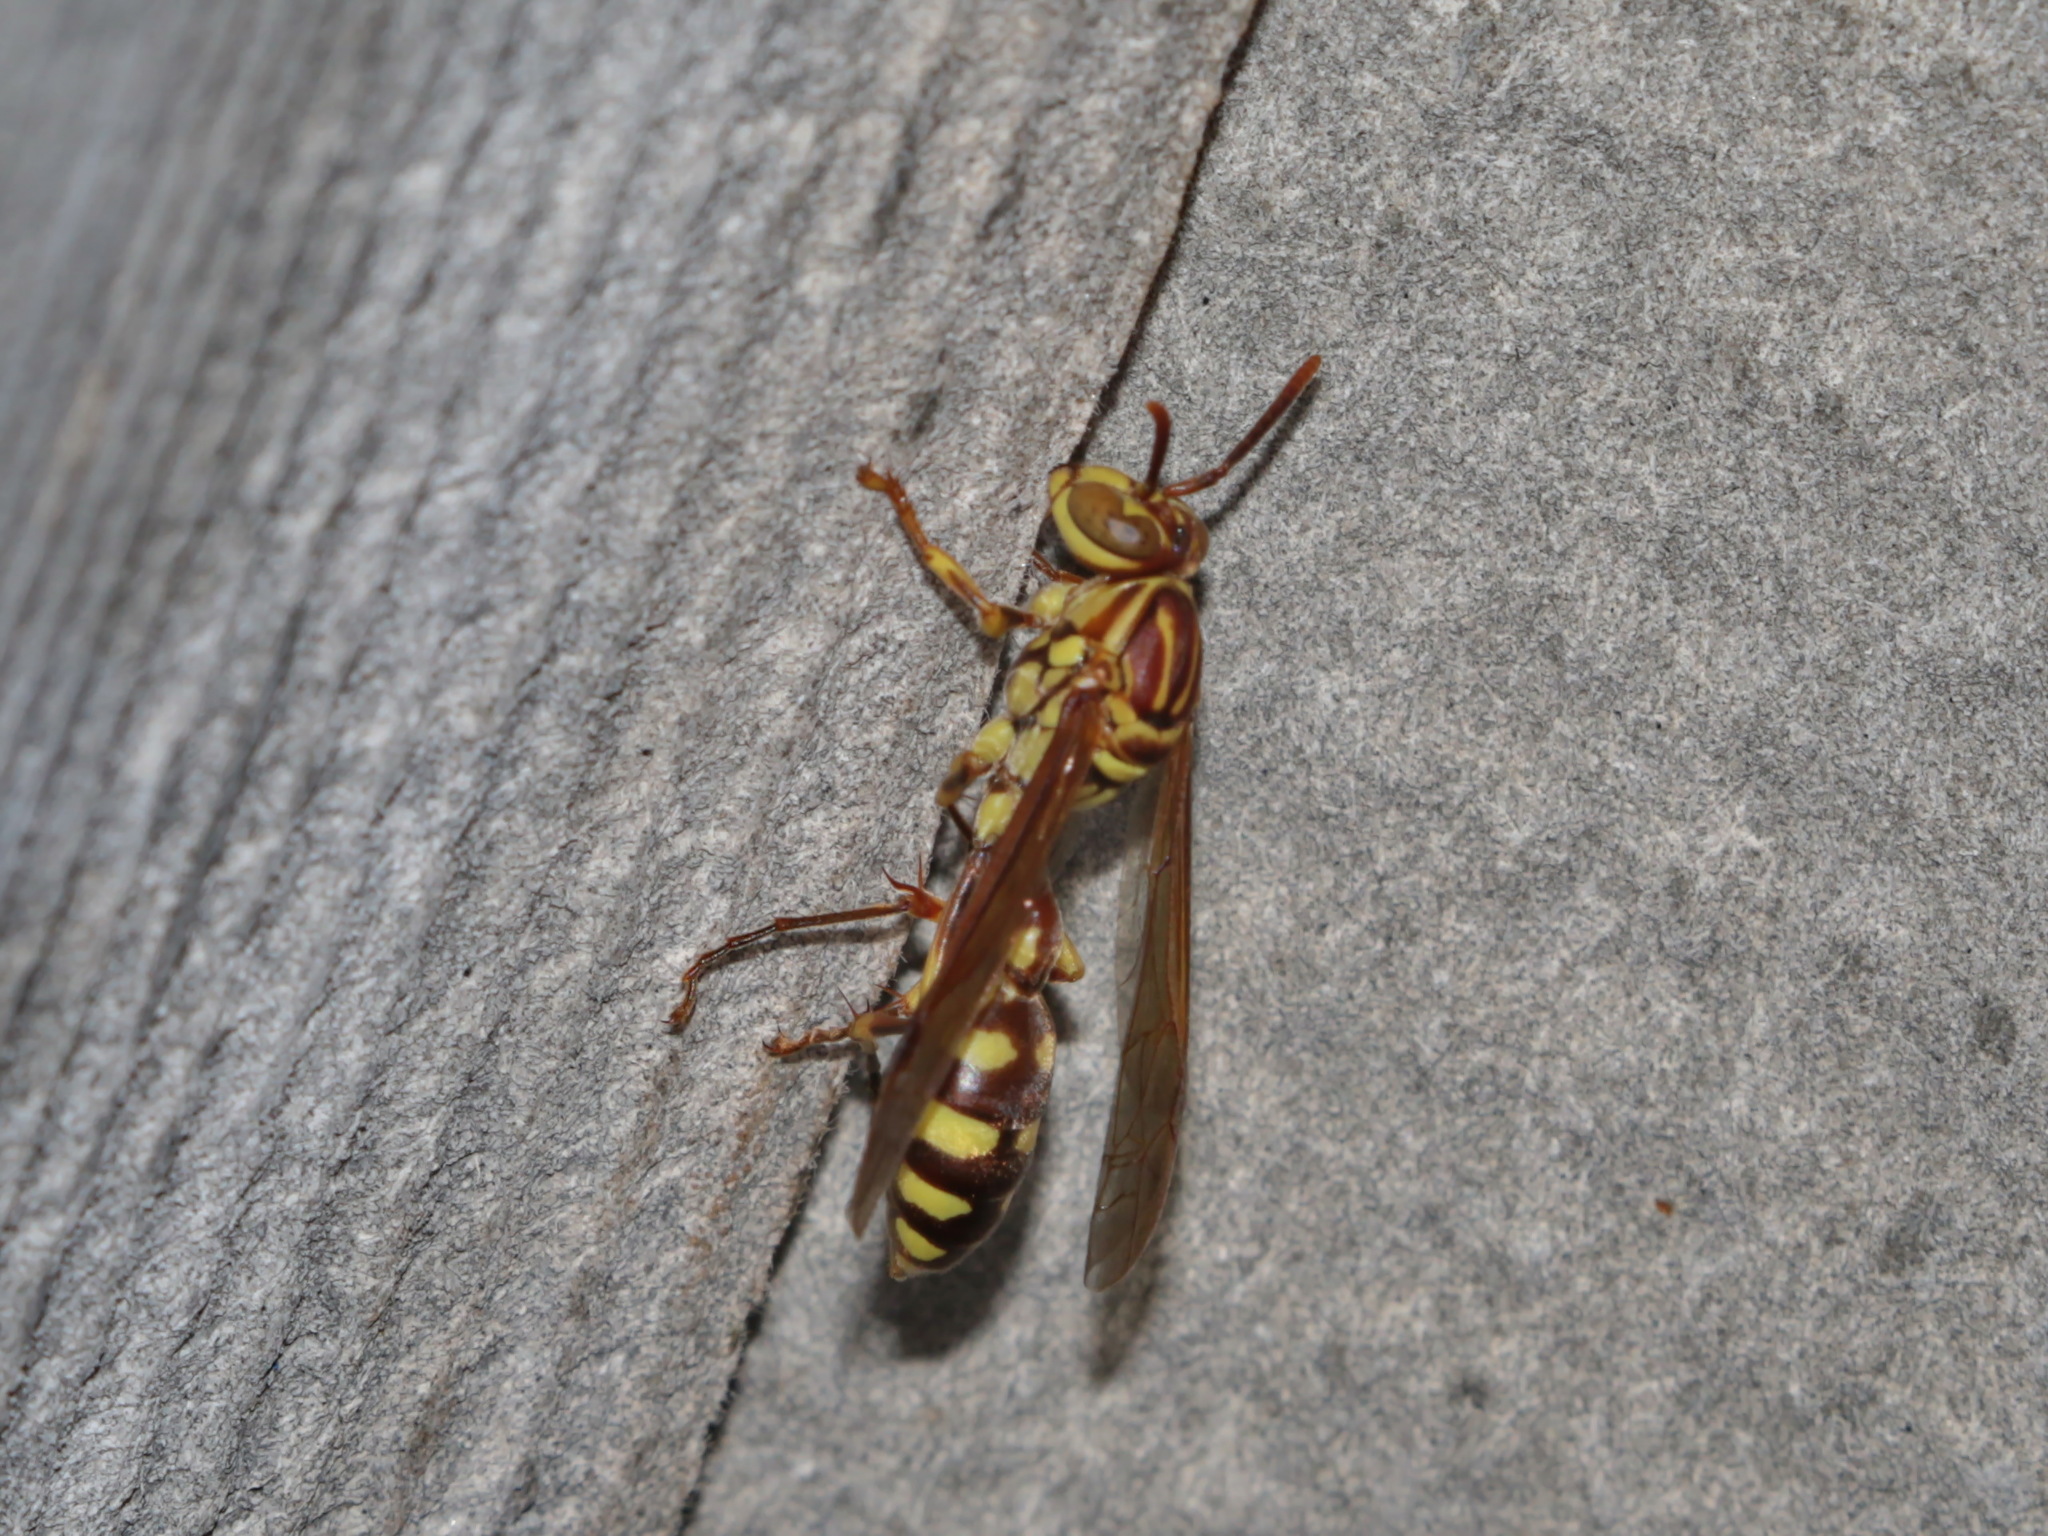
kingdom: Animalia
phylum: Arthropoda
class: Insecta
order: Hymenoptera
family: Vespidae
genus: Parapolybia
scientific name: Parapolybia varia
